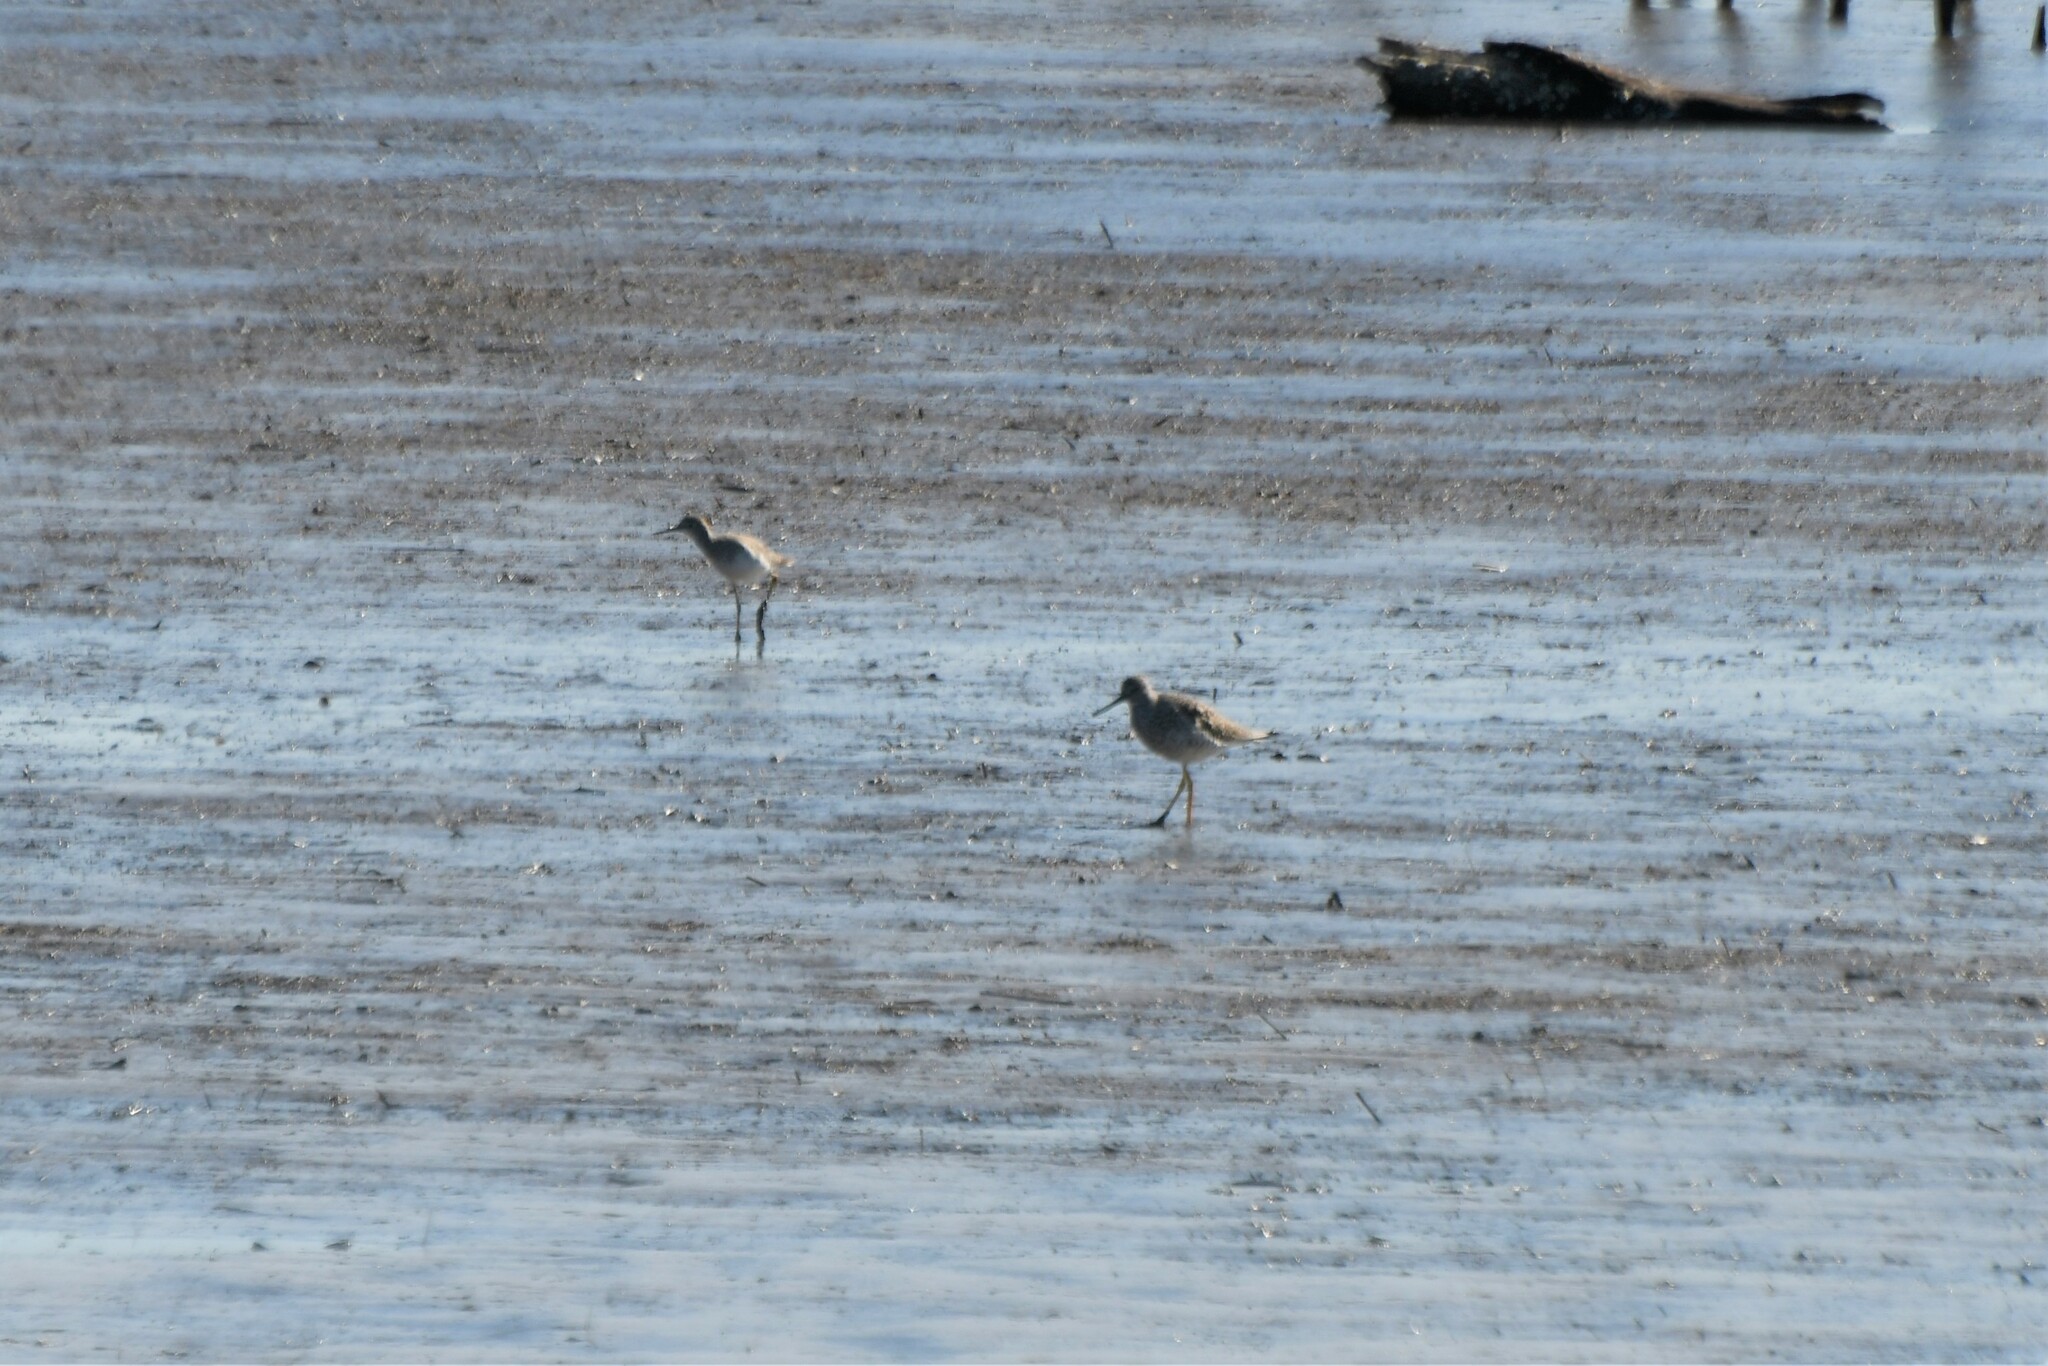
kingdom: Animalia
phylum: Chordata
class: Aves
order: Charadriiformes
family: Scolopacidae
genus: Tringa
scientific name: Tringa melanoleuca
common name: Greater yellowlegs
